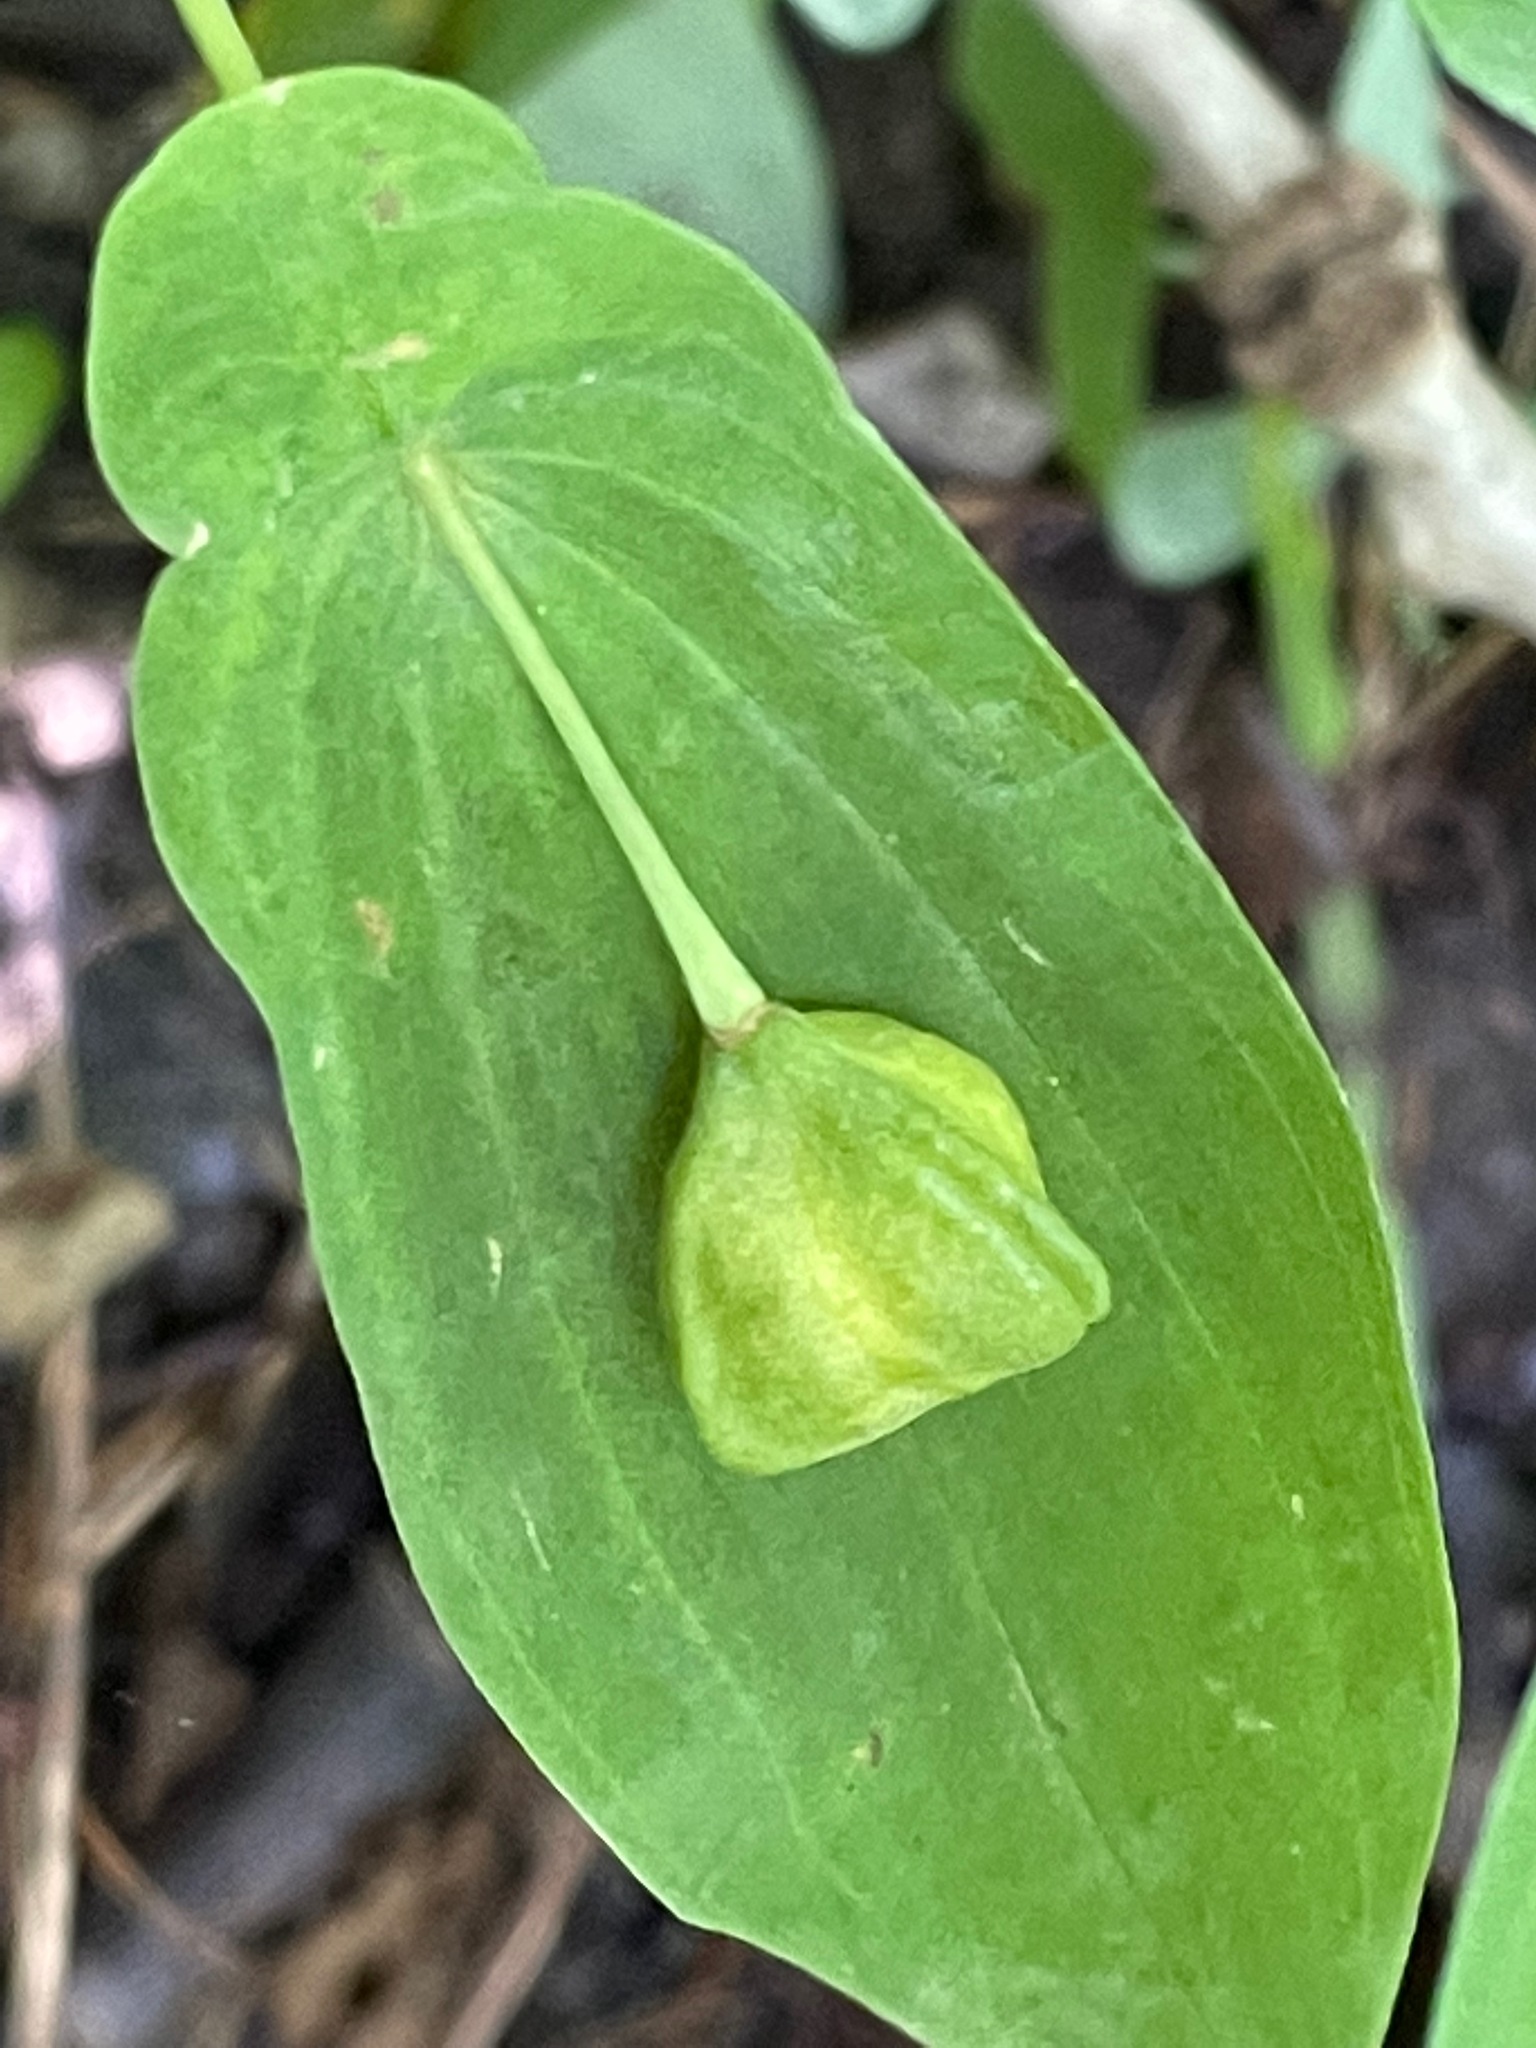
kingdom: Plantae
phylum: Tracheophyta
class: Liliopsida
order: Liliales
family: Colchicaceae
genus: Uvularia
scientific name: Uvularia grandiflora
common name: Bellwort
